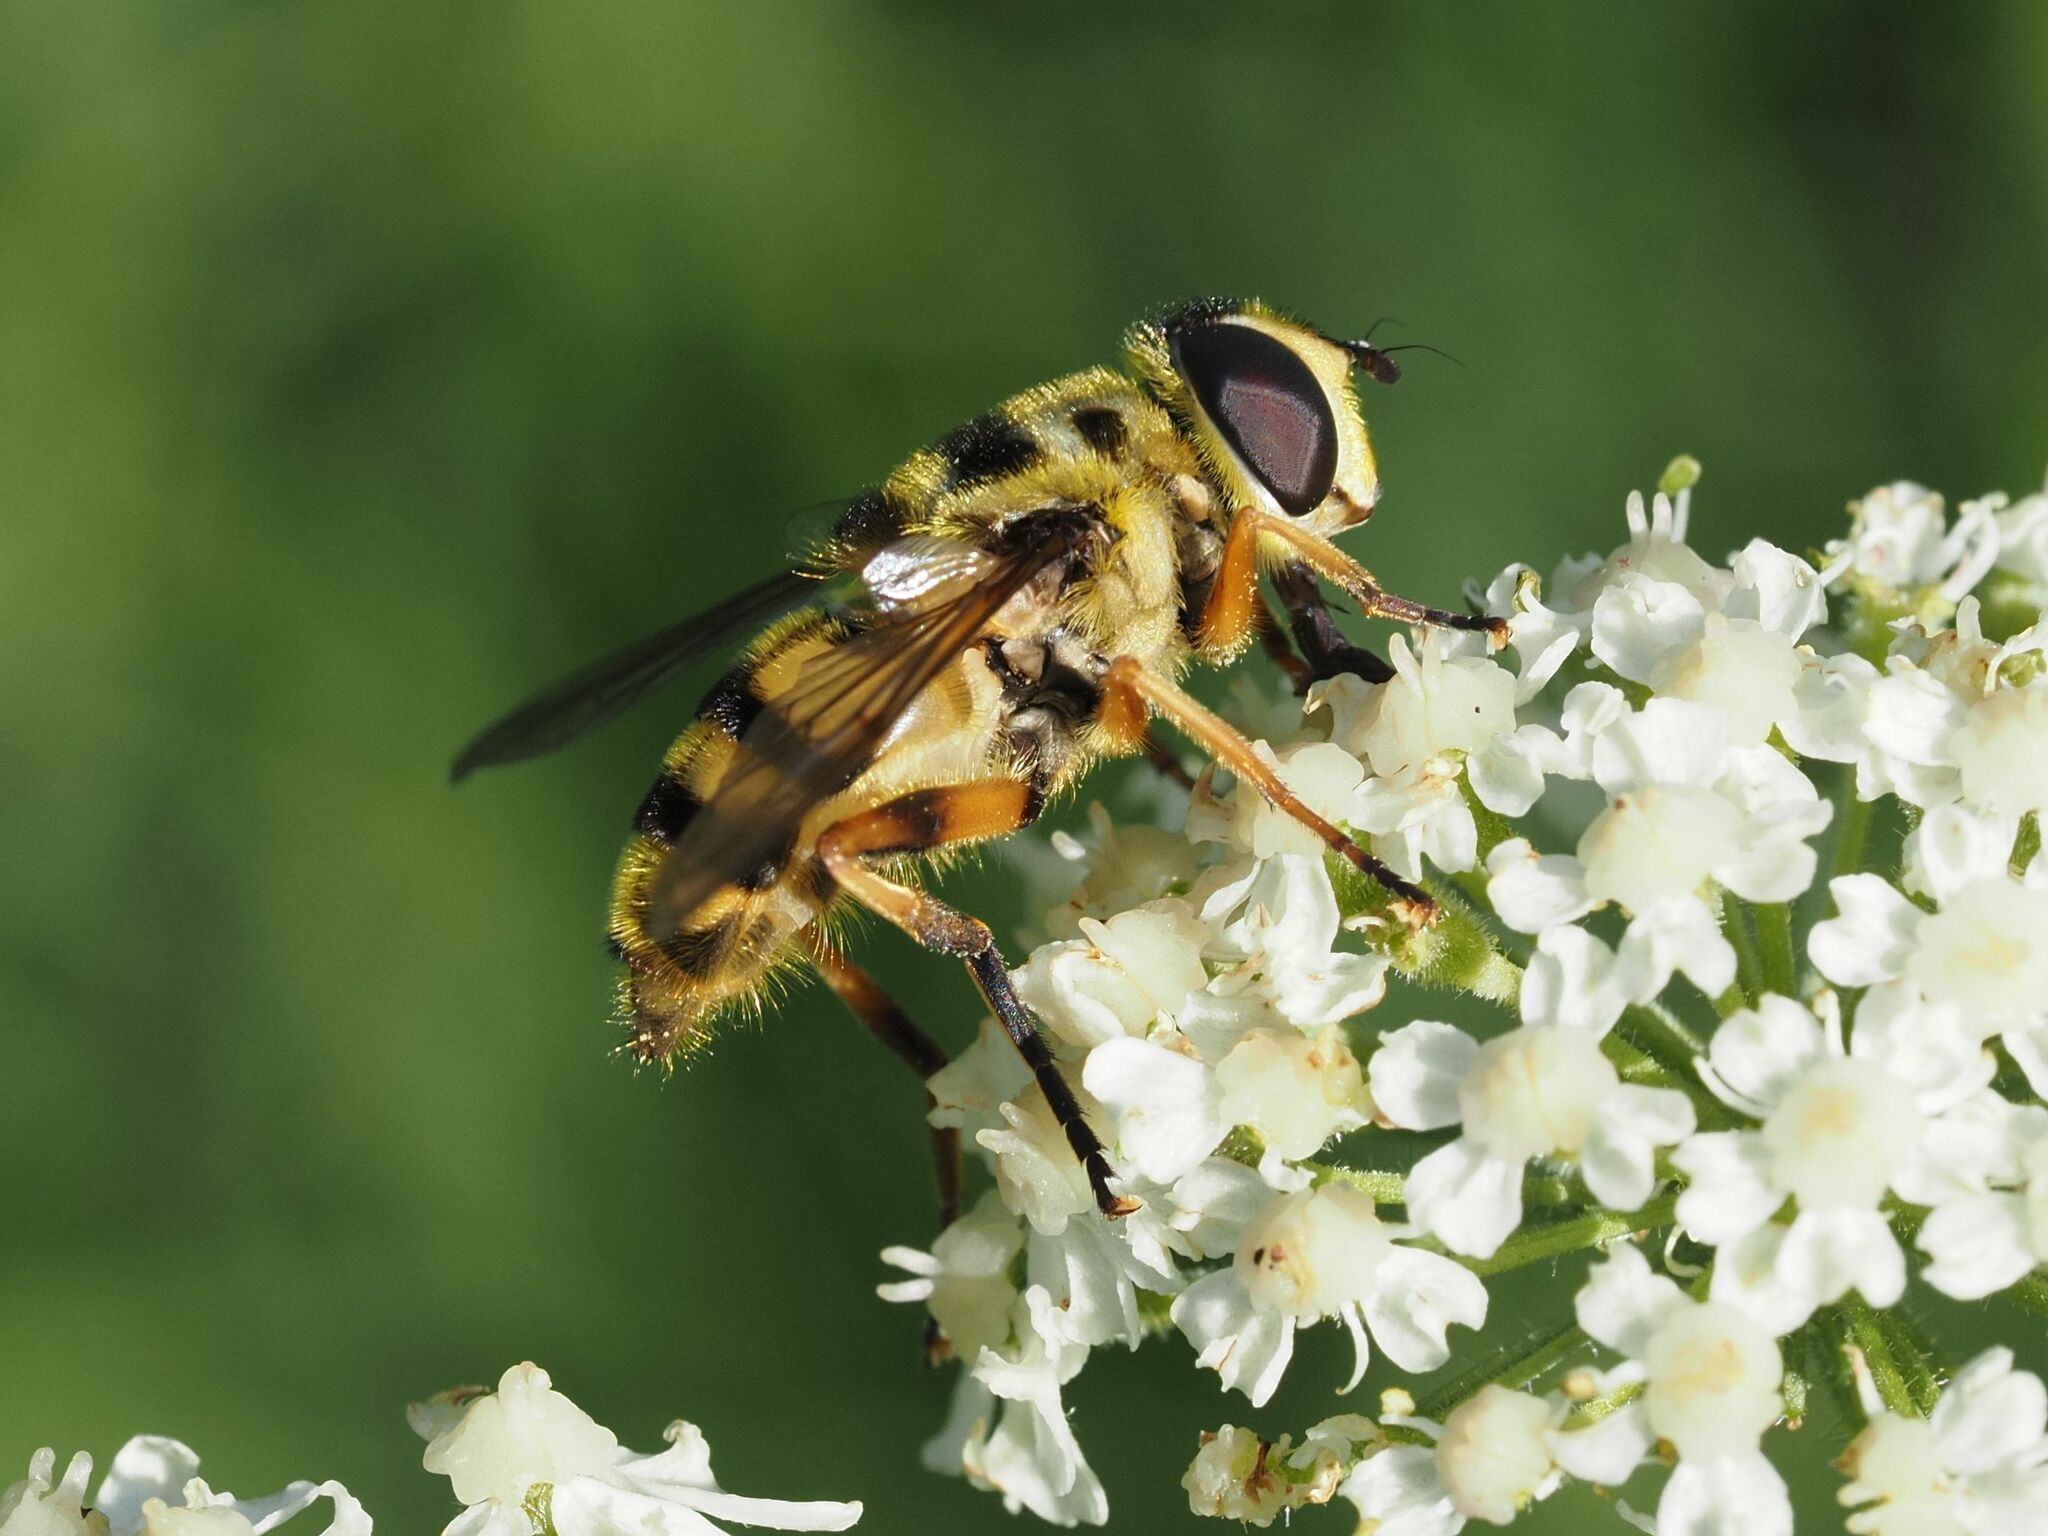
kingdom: Animalia
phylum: Arthropoda
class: Insecta
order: Diptera
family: Syrphidae
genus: Myathropa
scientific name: Myathropa florea
